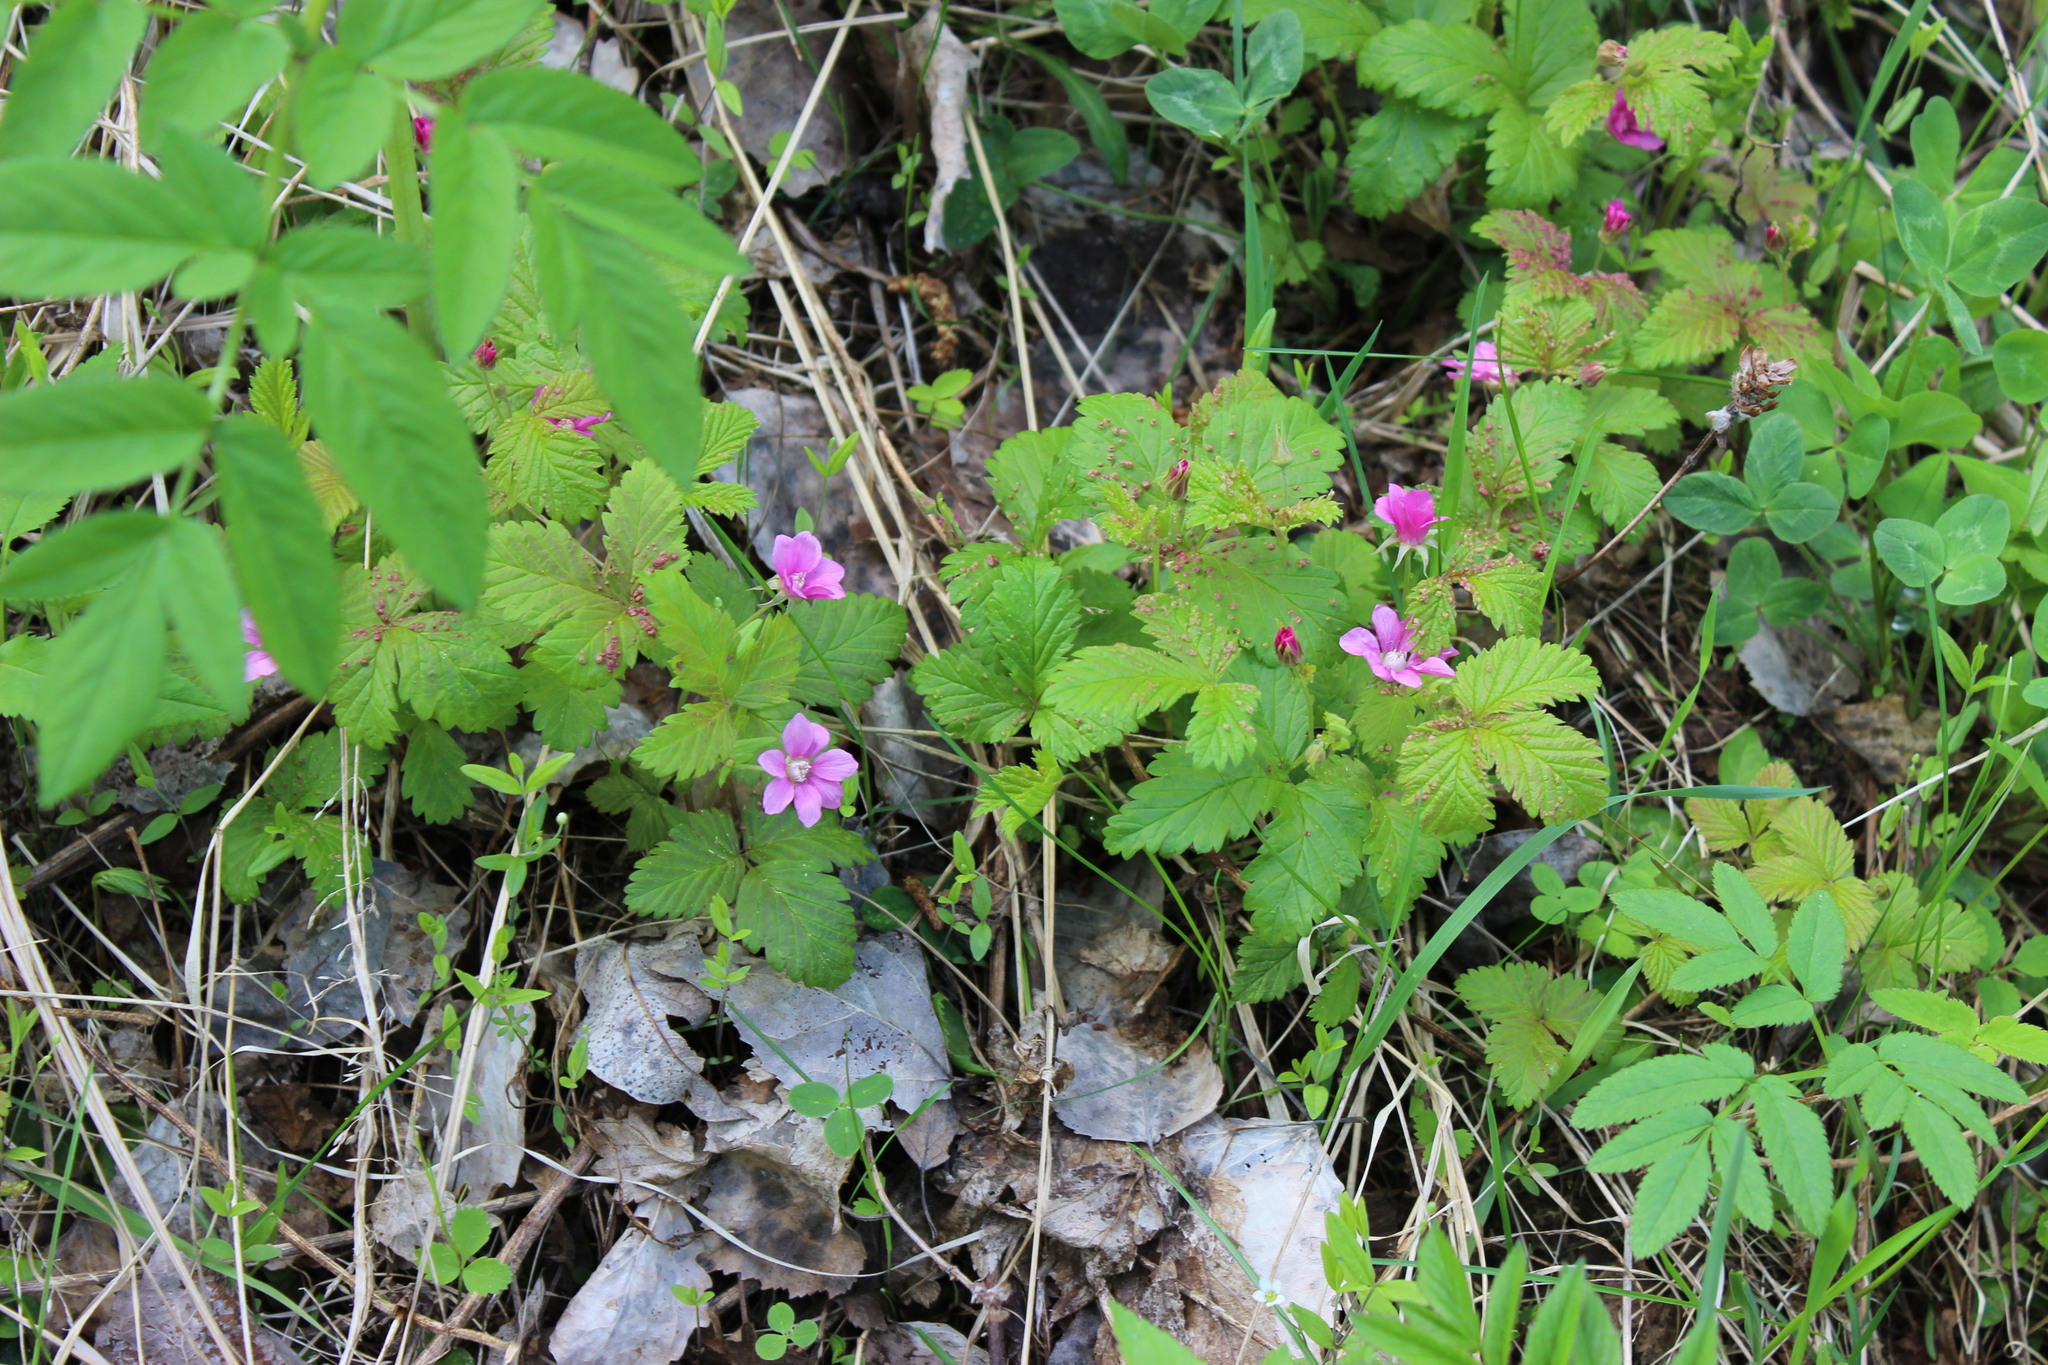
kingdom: Plantae
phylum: Tracheophyta
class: Magnoliopsida
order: Rosales
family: Rosaceae
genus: Rubus
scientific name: Rubus arcticus
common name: Arctic bramble
